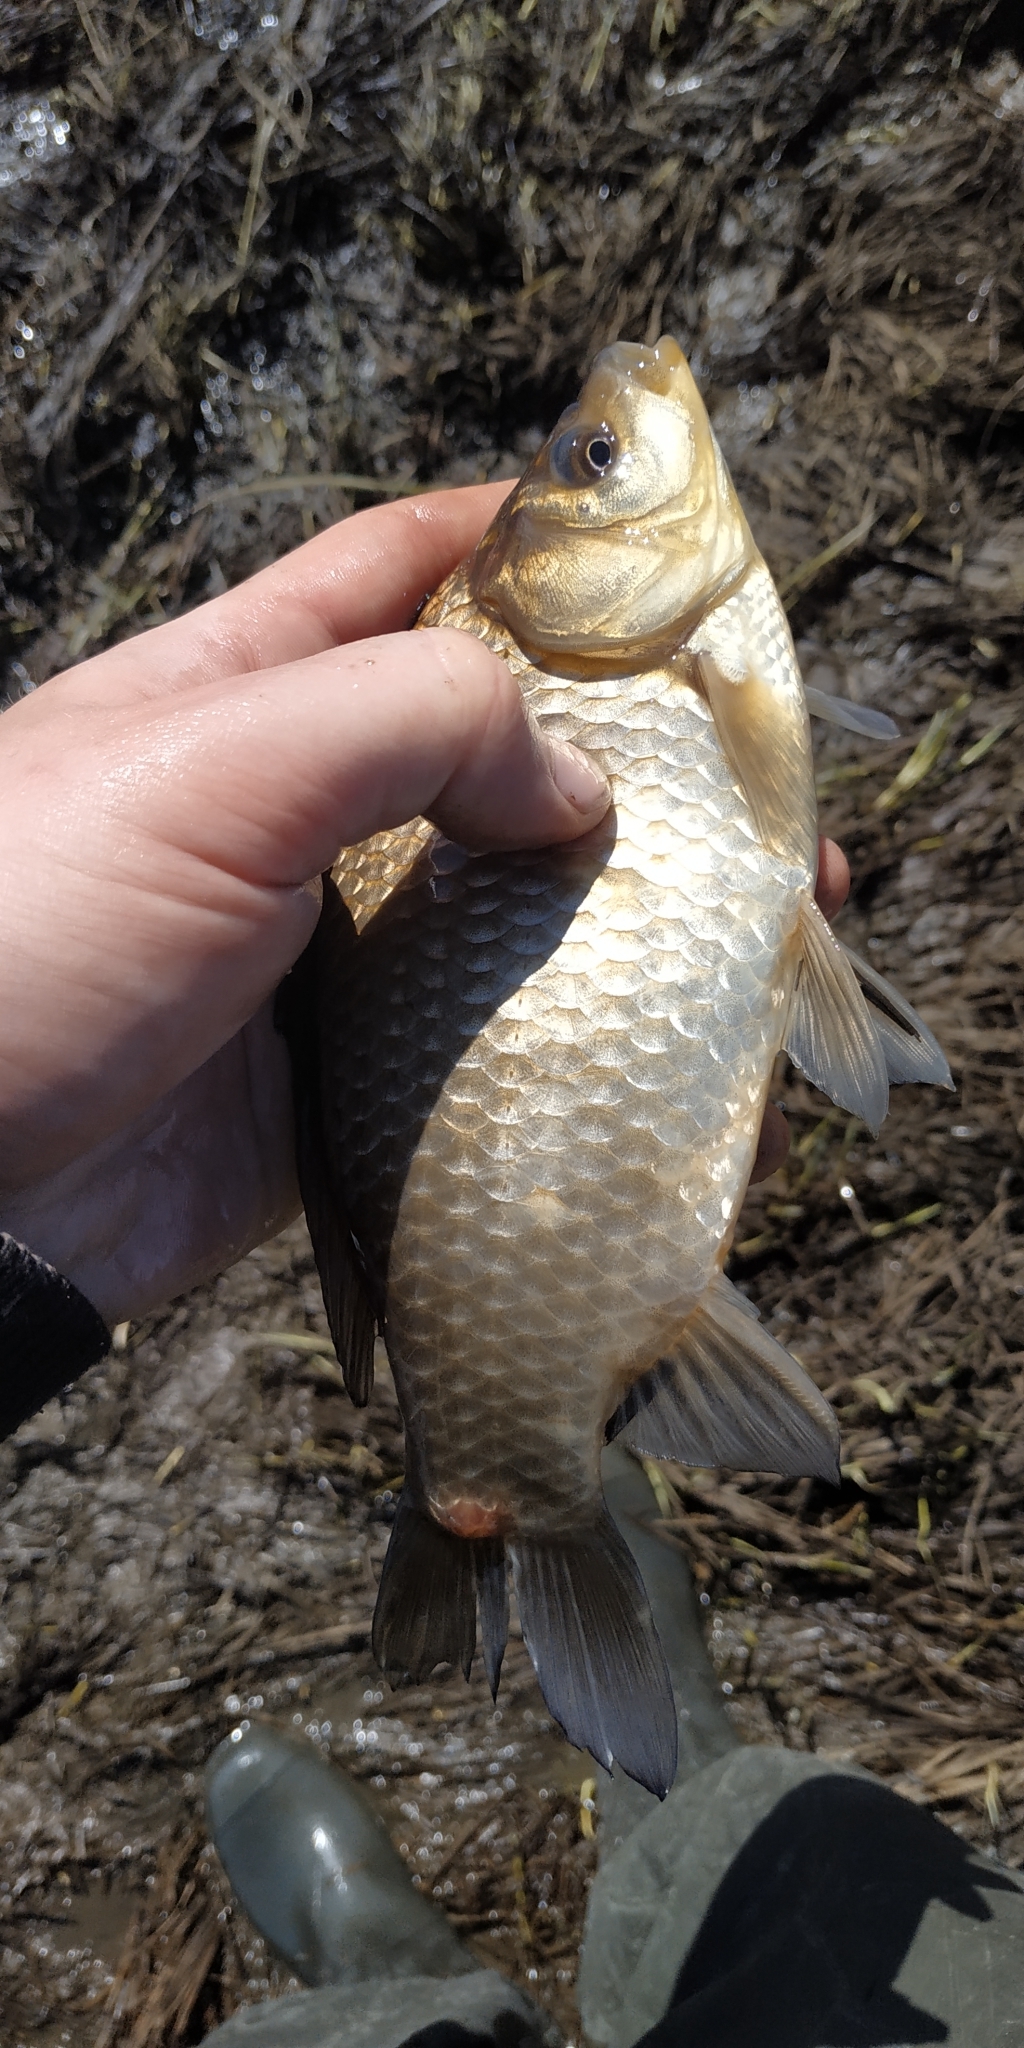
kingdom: Animalia
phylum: Chordata
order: Cypriniformes
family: Cyprinidae
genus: Carassius
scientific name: Carassius gibelio
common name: Prussian carp
